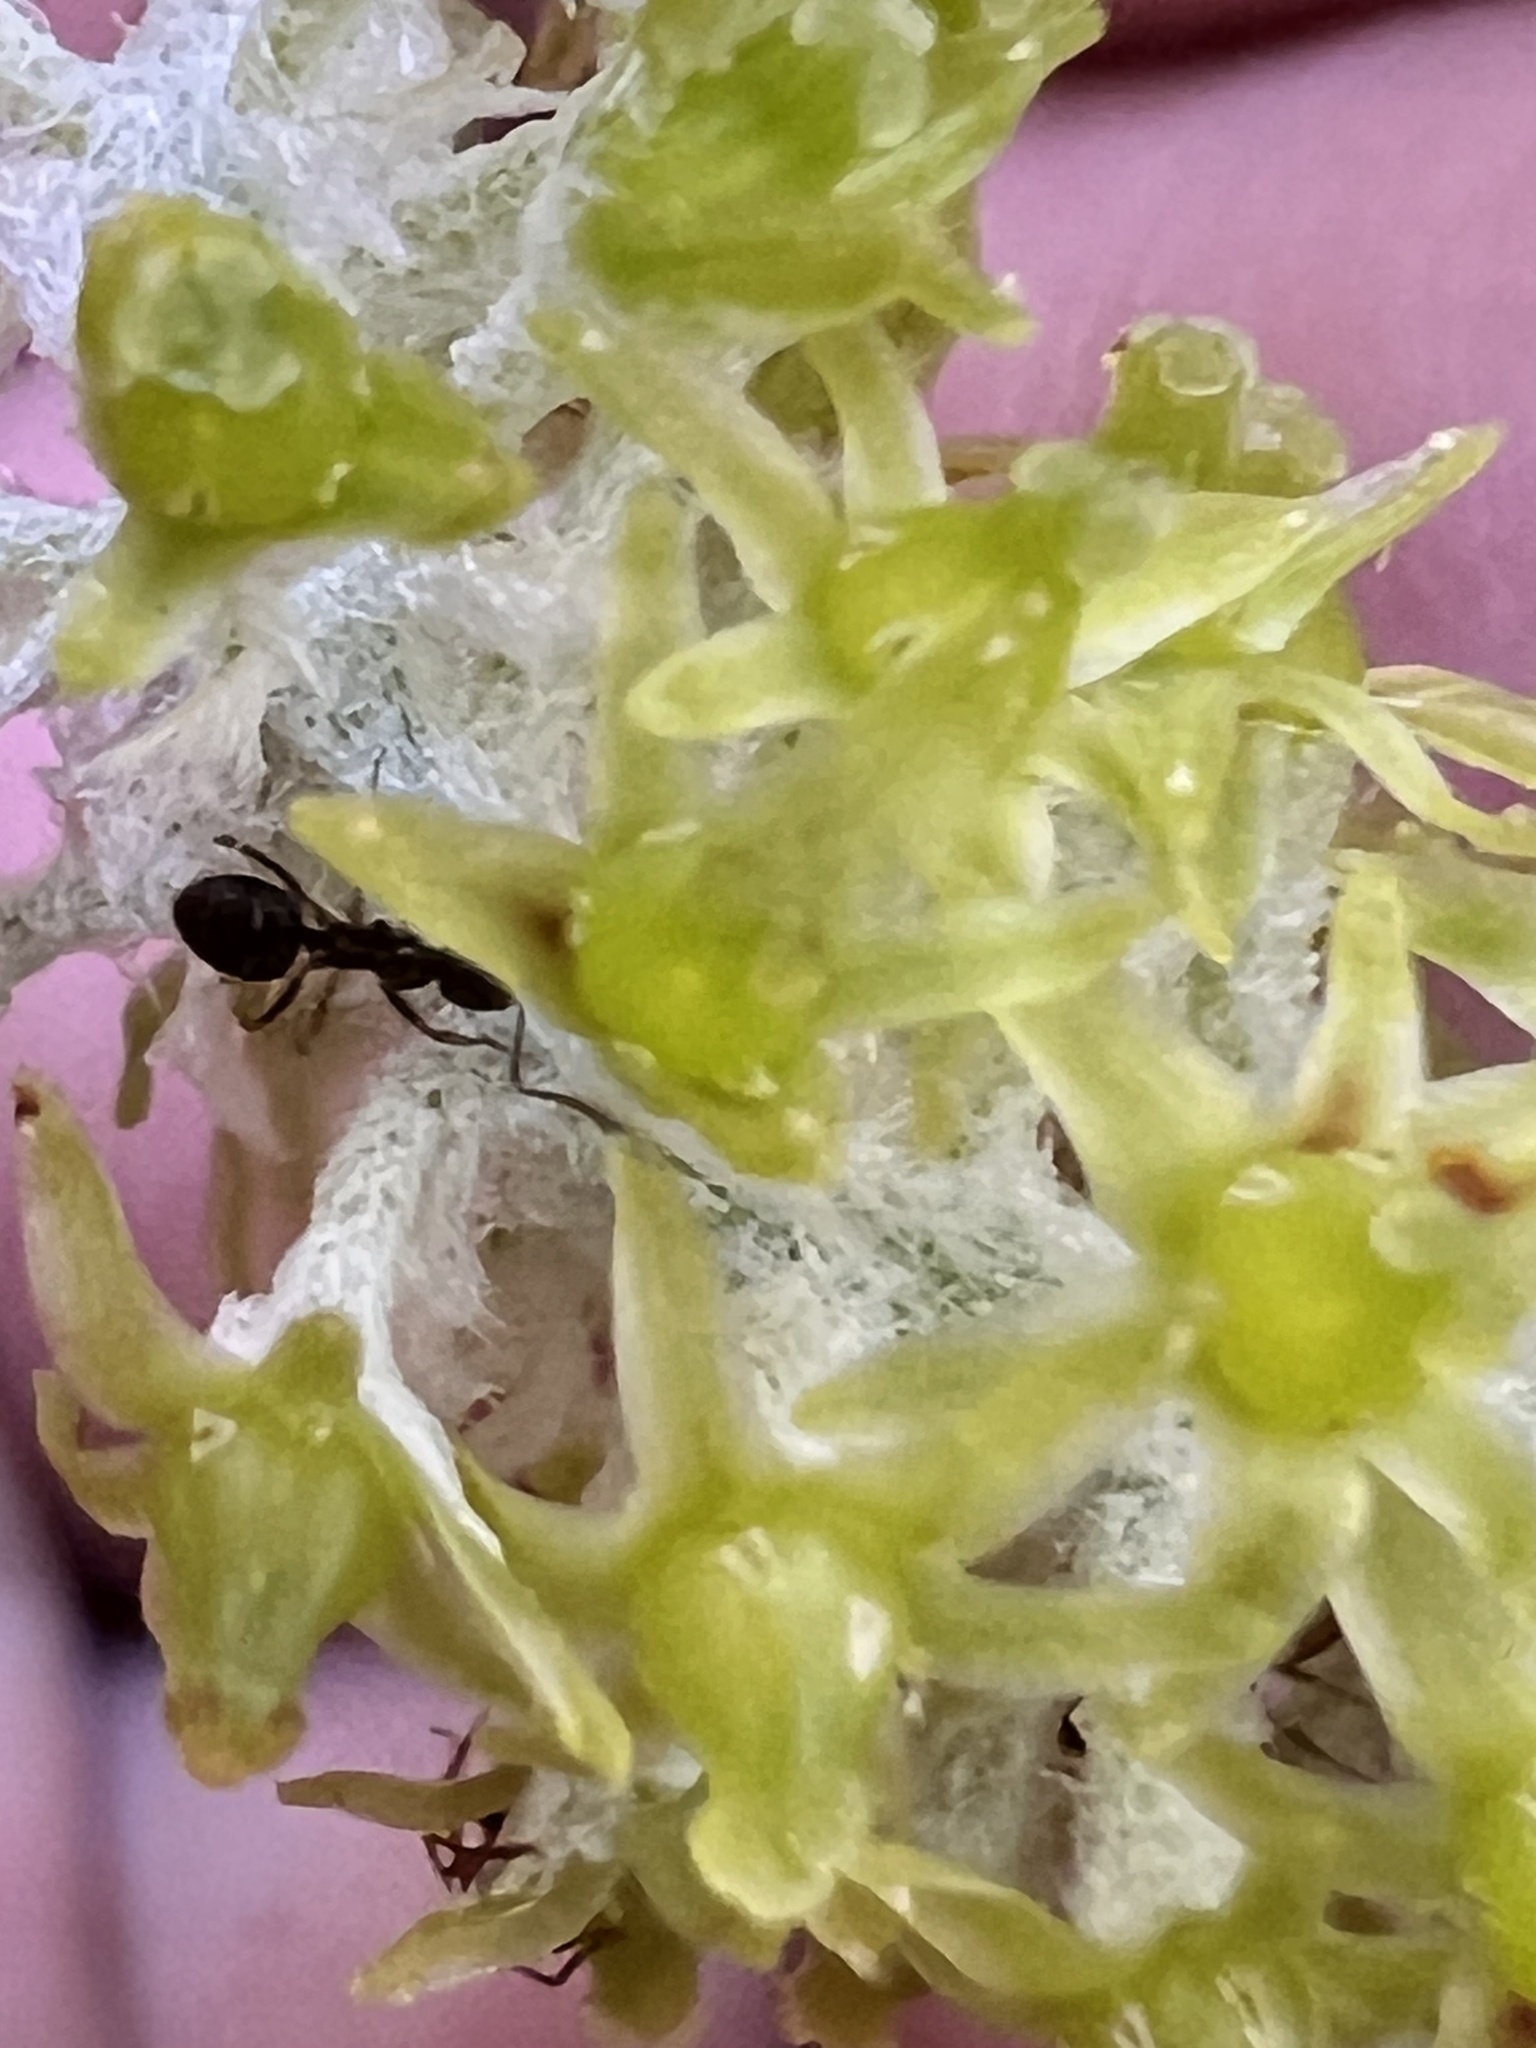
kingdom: Plantae
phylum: Tracheophyta
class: Liliopsida
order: Asparagales
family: Asteliaceae
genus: Astelia
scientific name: Astelia solandri
